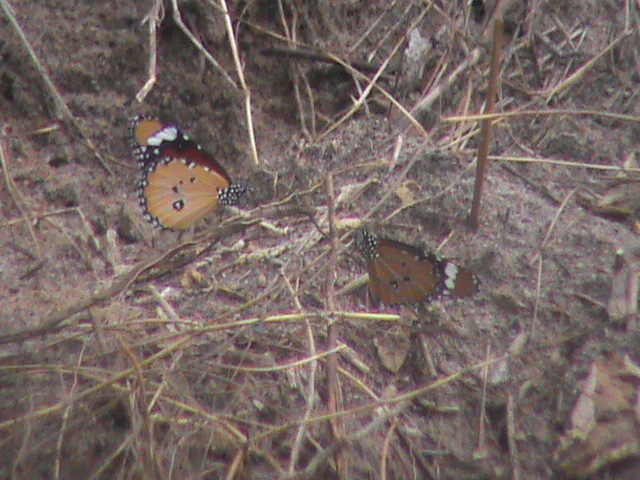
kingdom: Animalia
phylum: Arthropoda
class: Insecta
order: Lepidoptera
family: Nymphalidae
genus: Danaus
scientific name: Danaus chrysippus
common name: Plain tiger
